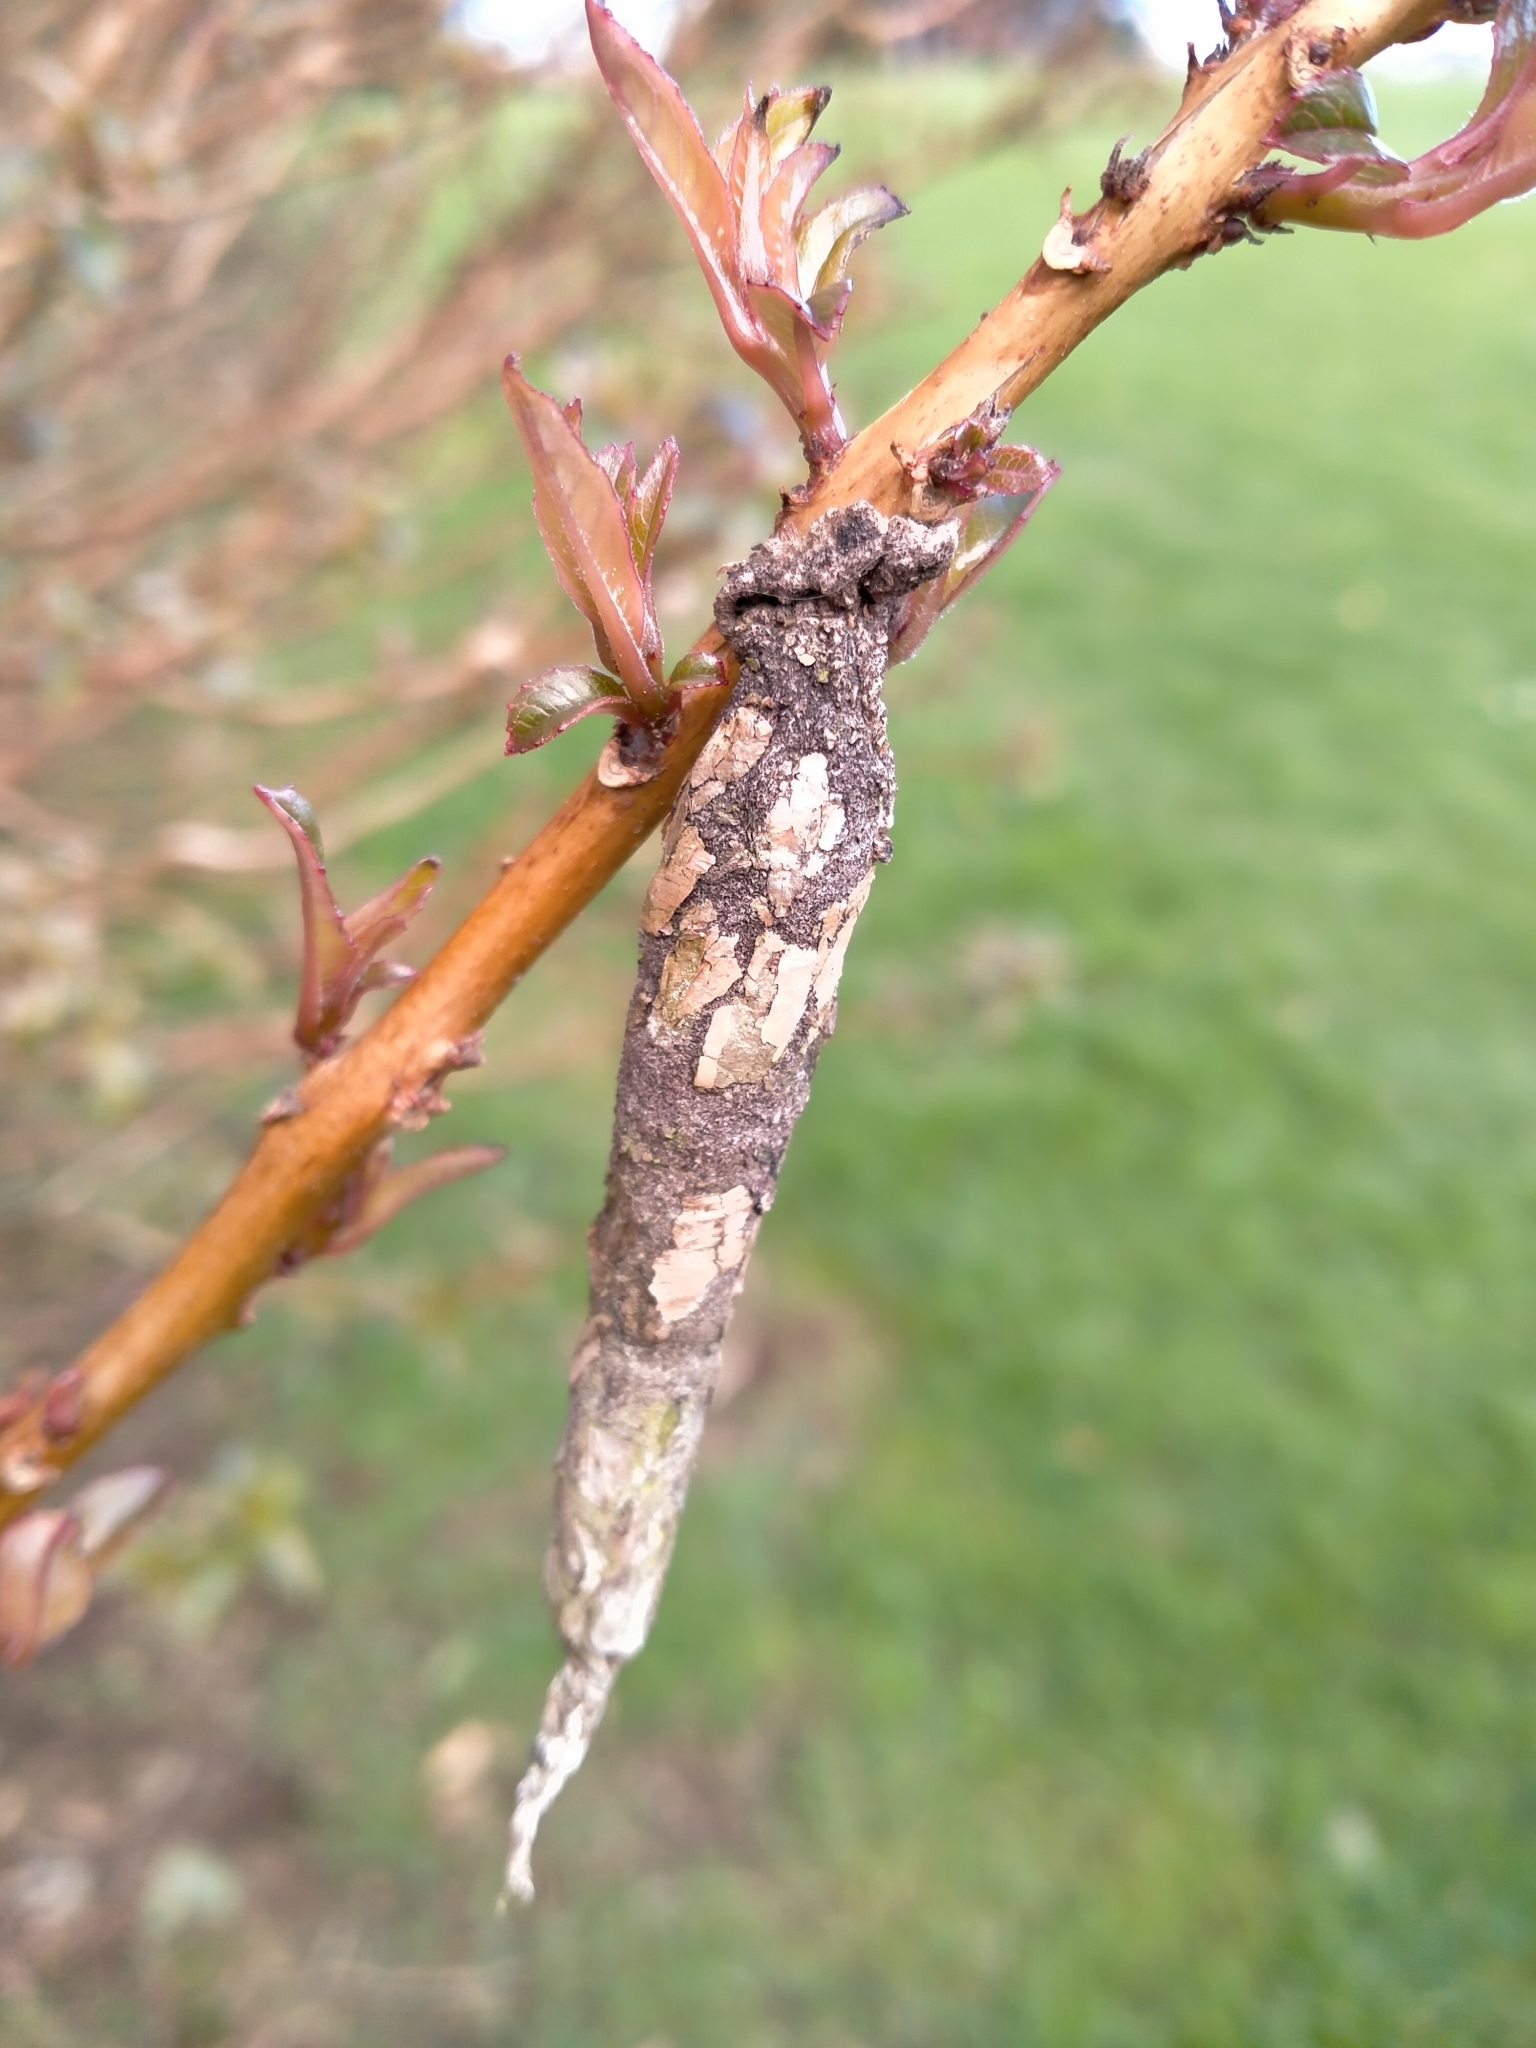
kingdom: Animalia
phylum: Arthropoda
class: Insecta
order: Lepidoptera
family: Psychidae
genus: Liothula
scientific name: Liothula omnivora
